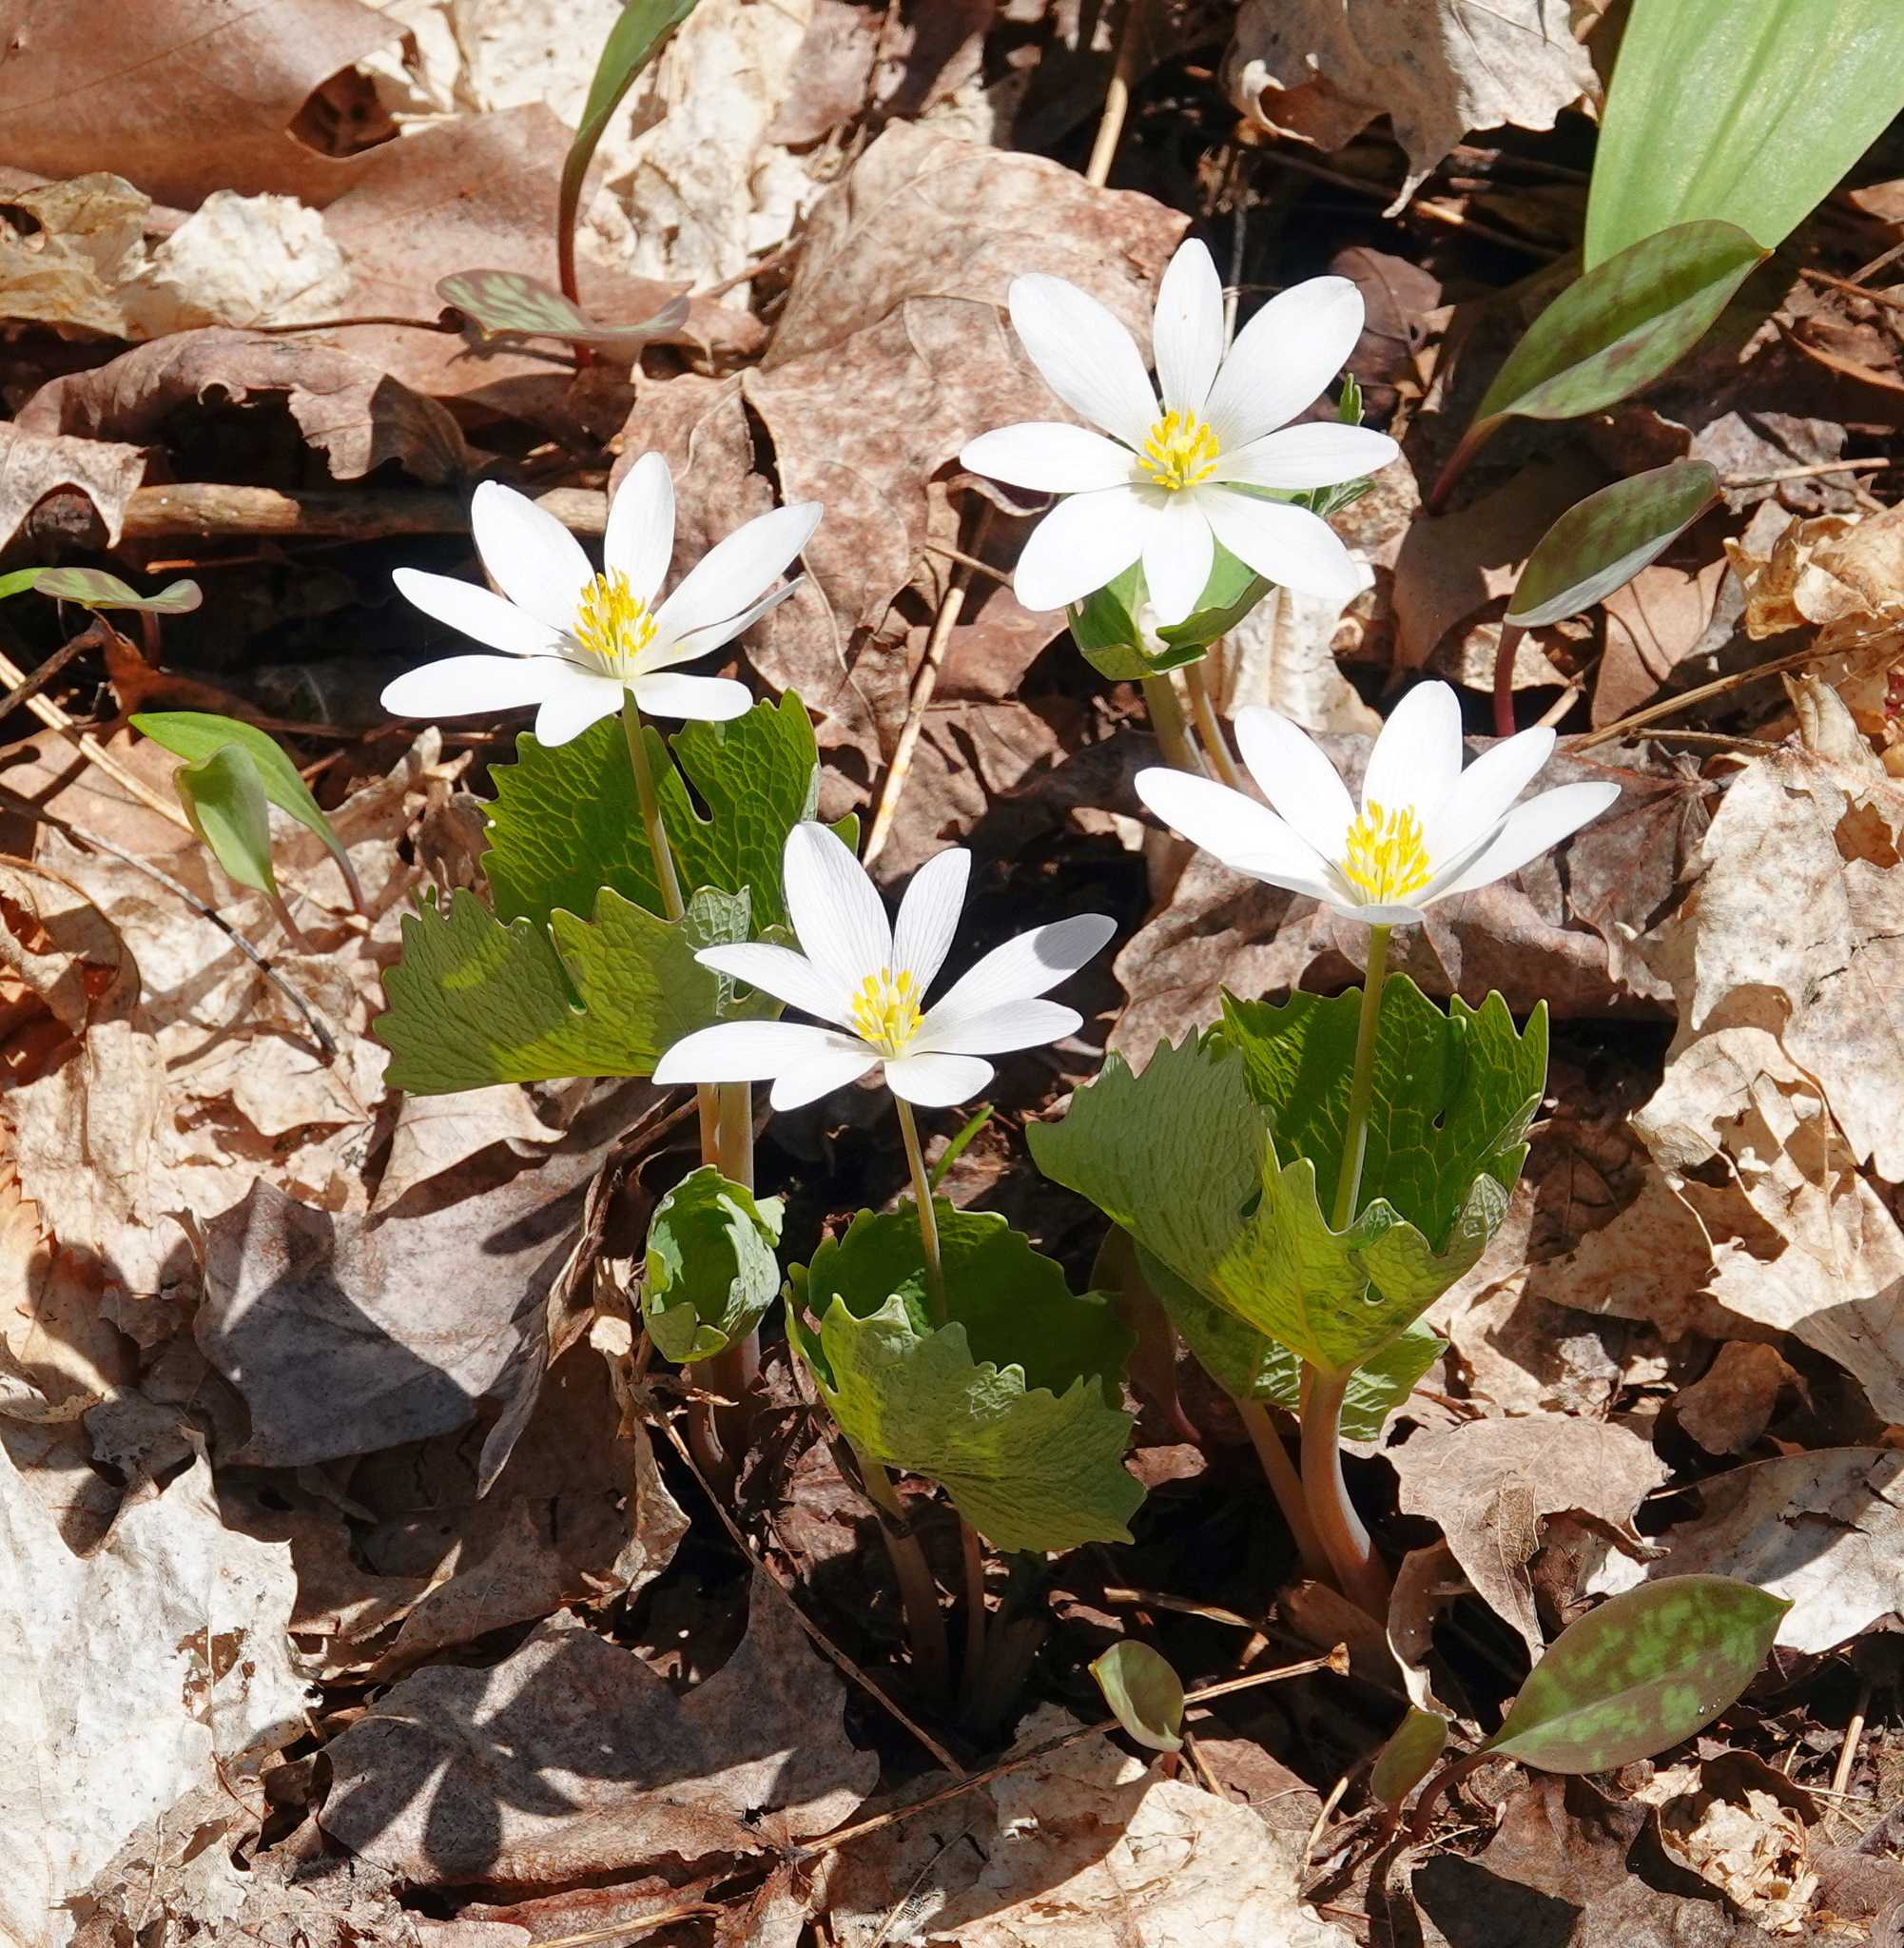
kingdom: Plantae
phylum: Tracheophyta
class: Magnoliopsida
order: Ranunculales
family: Papaveraceae
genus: Sanguinaria
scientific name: Sanguinaria canadensis
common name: Bloodroot
